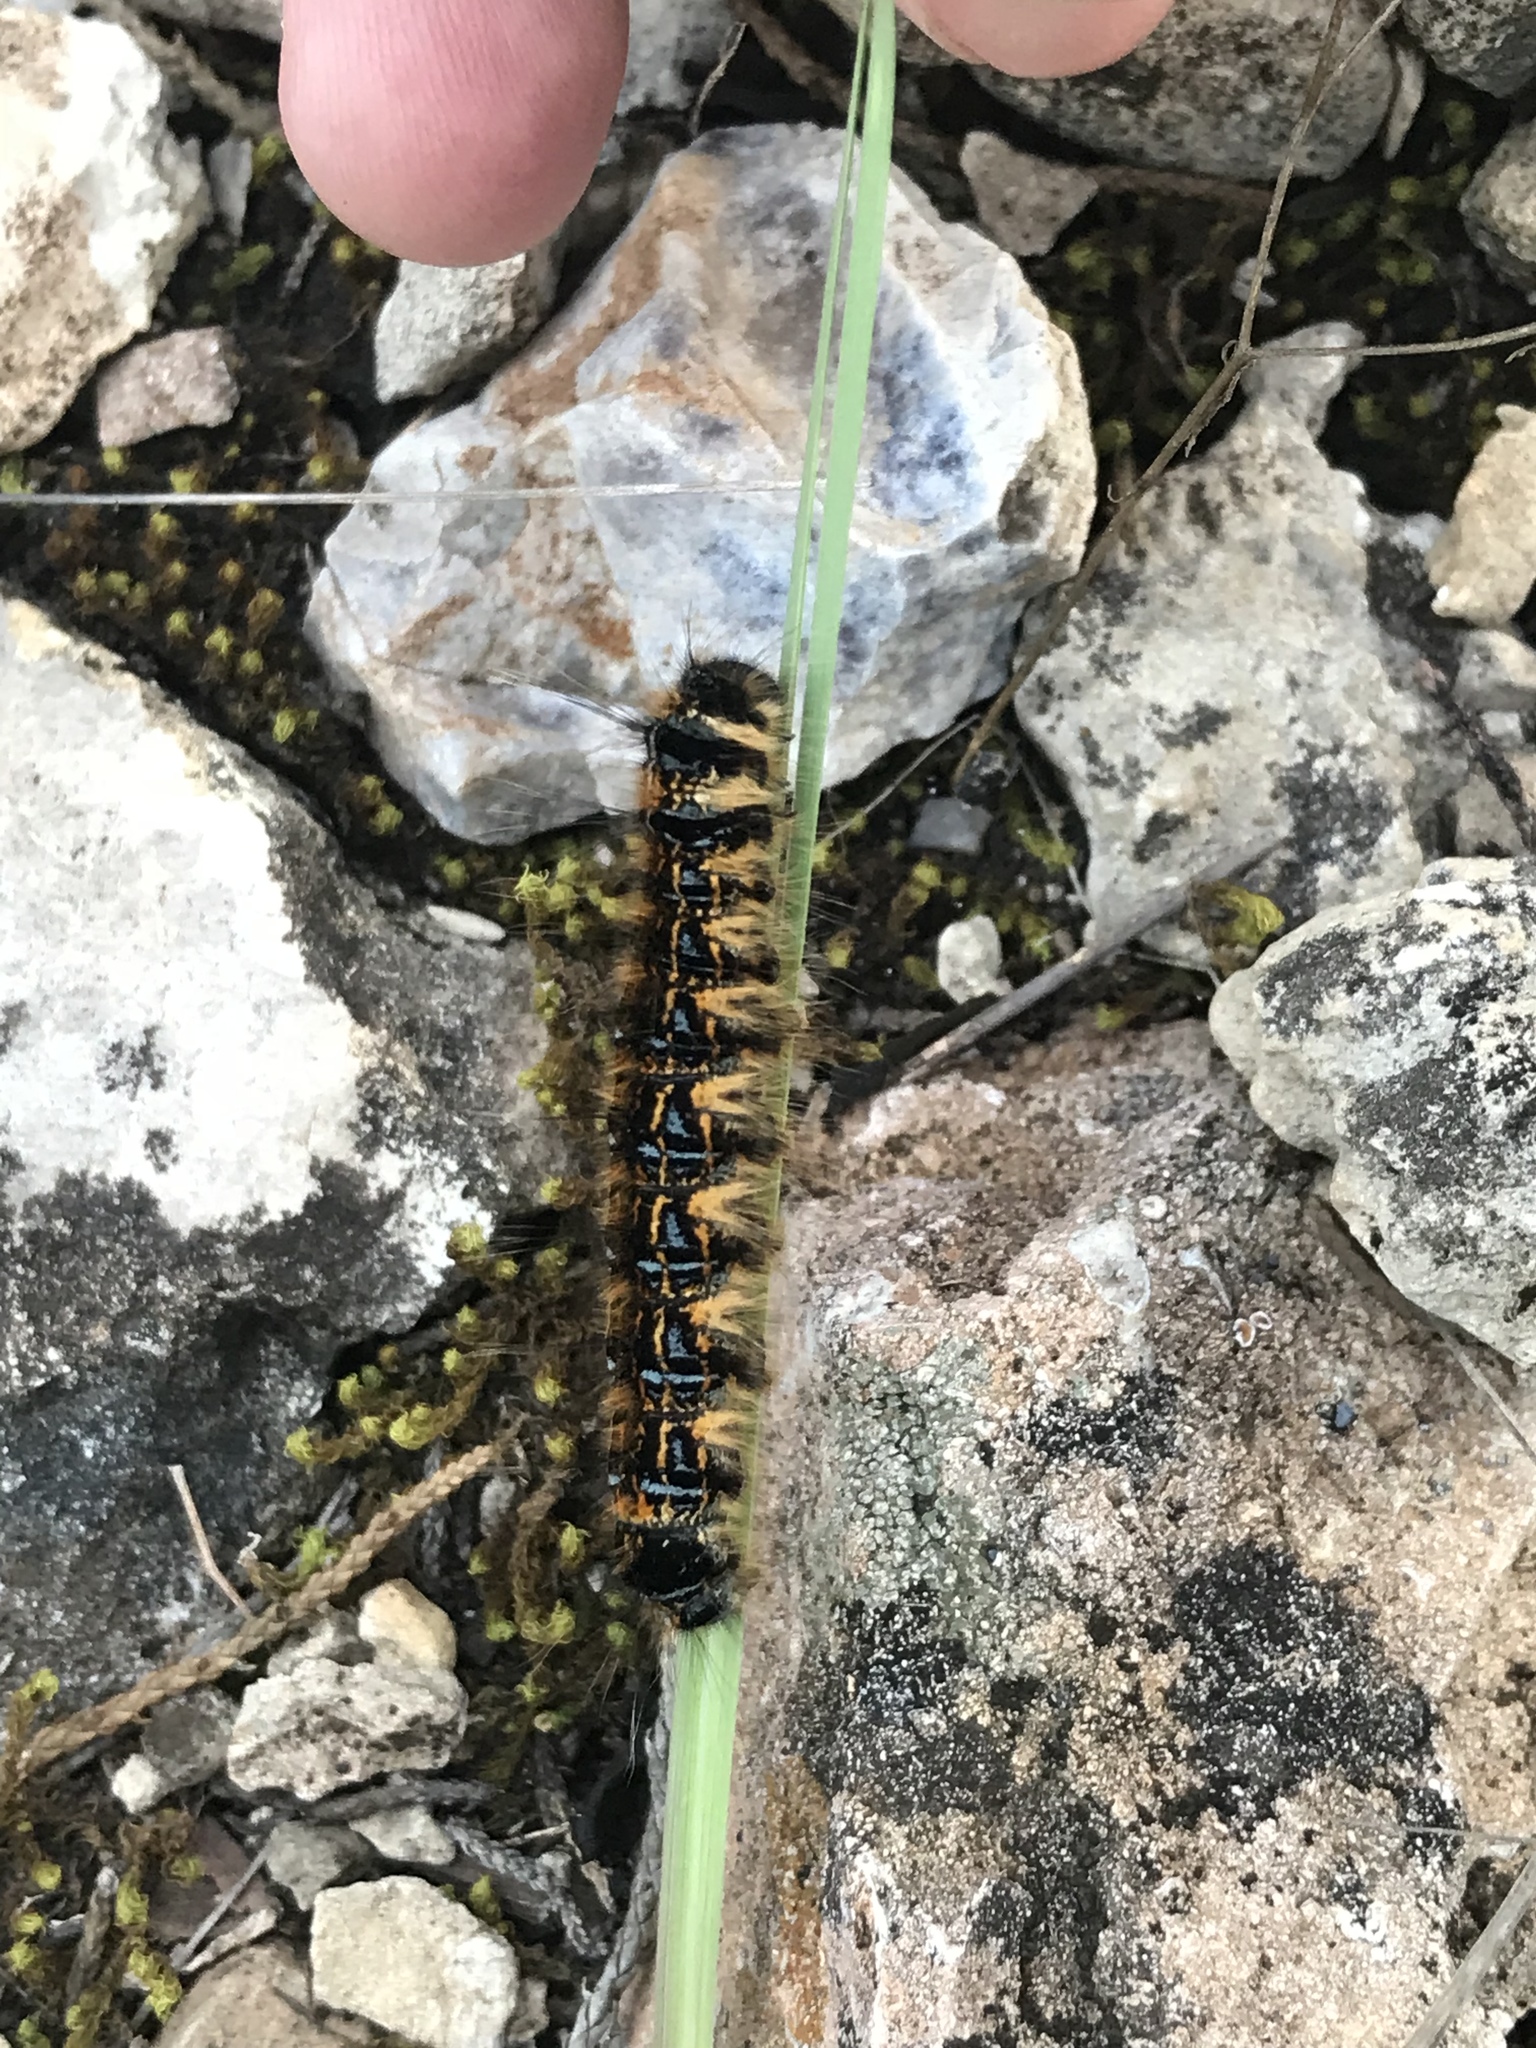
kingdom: Animalia
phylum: Arthropoda
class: Insecta
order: Lepidoptera
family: Lasiocampidae
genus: Malacosoma
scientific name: Malacosoma tigris
